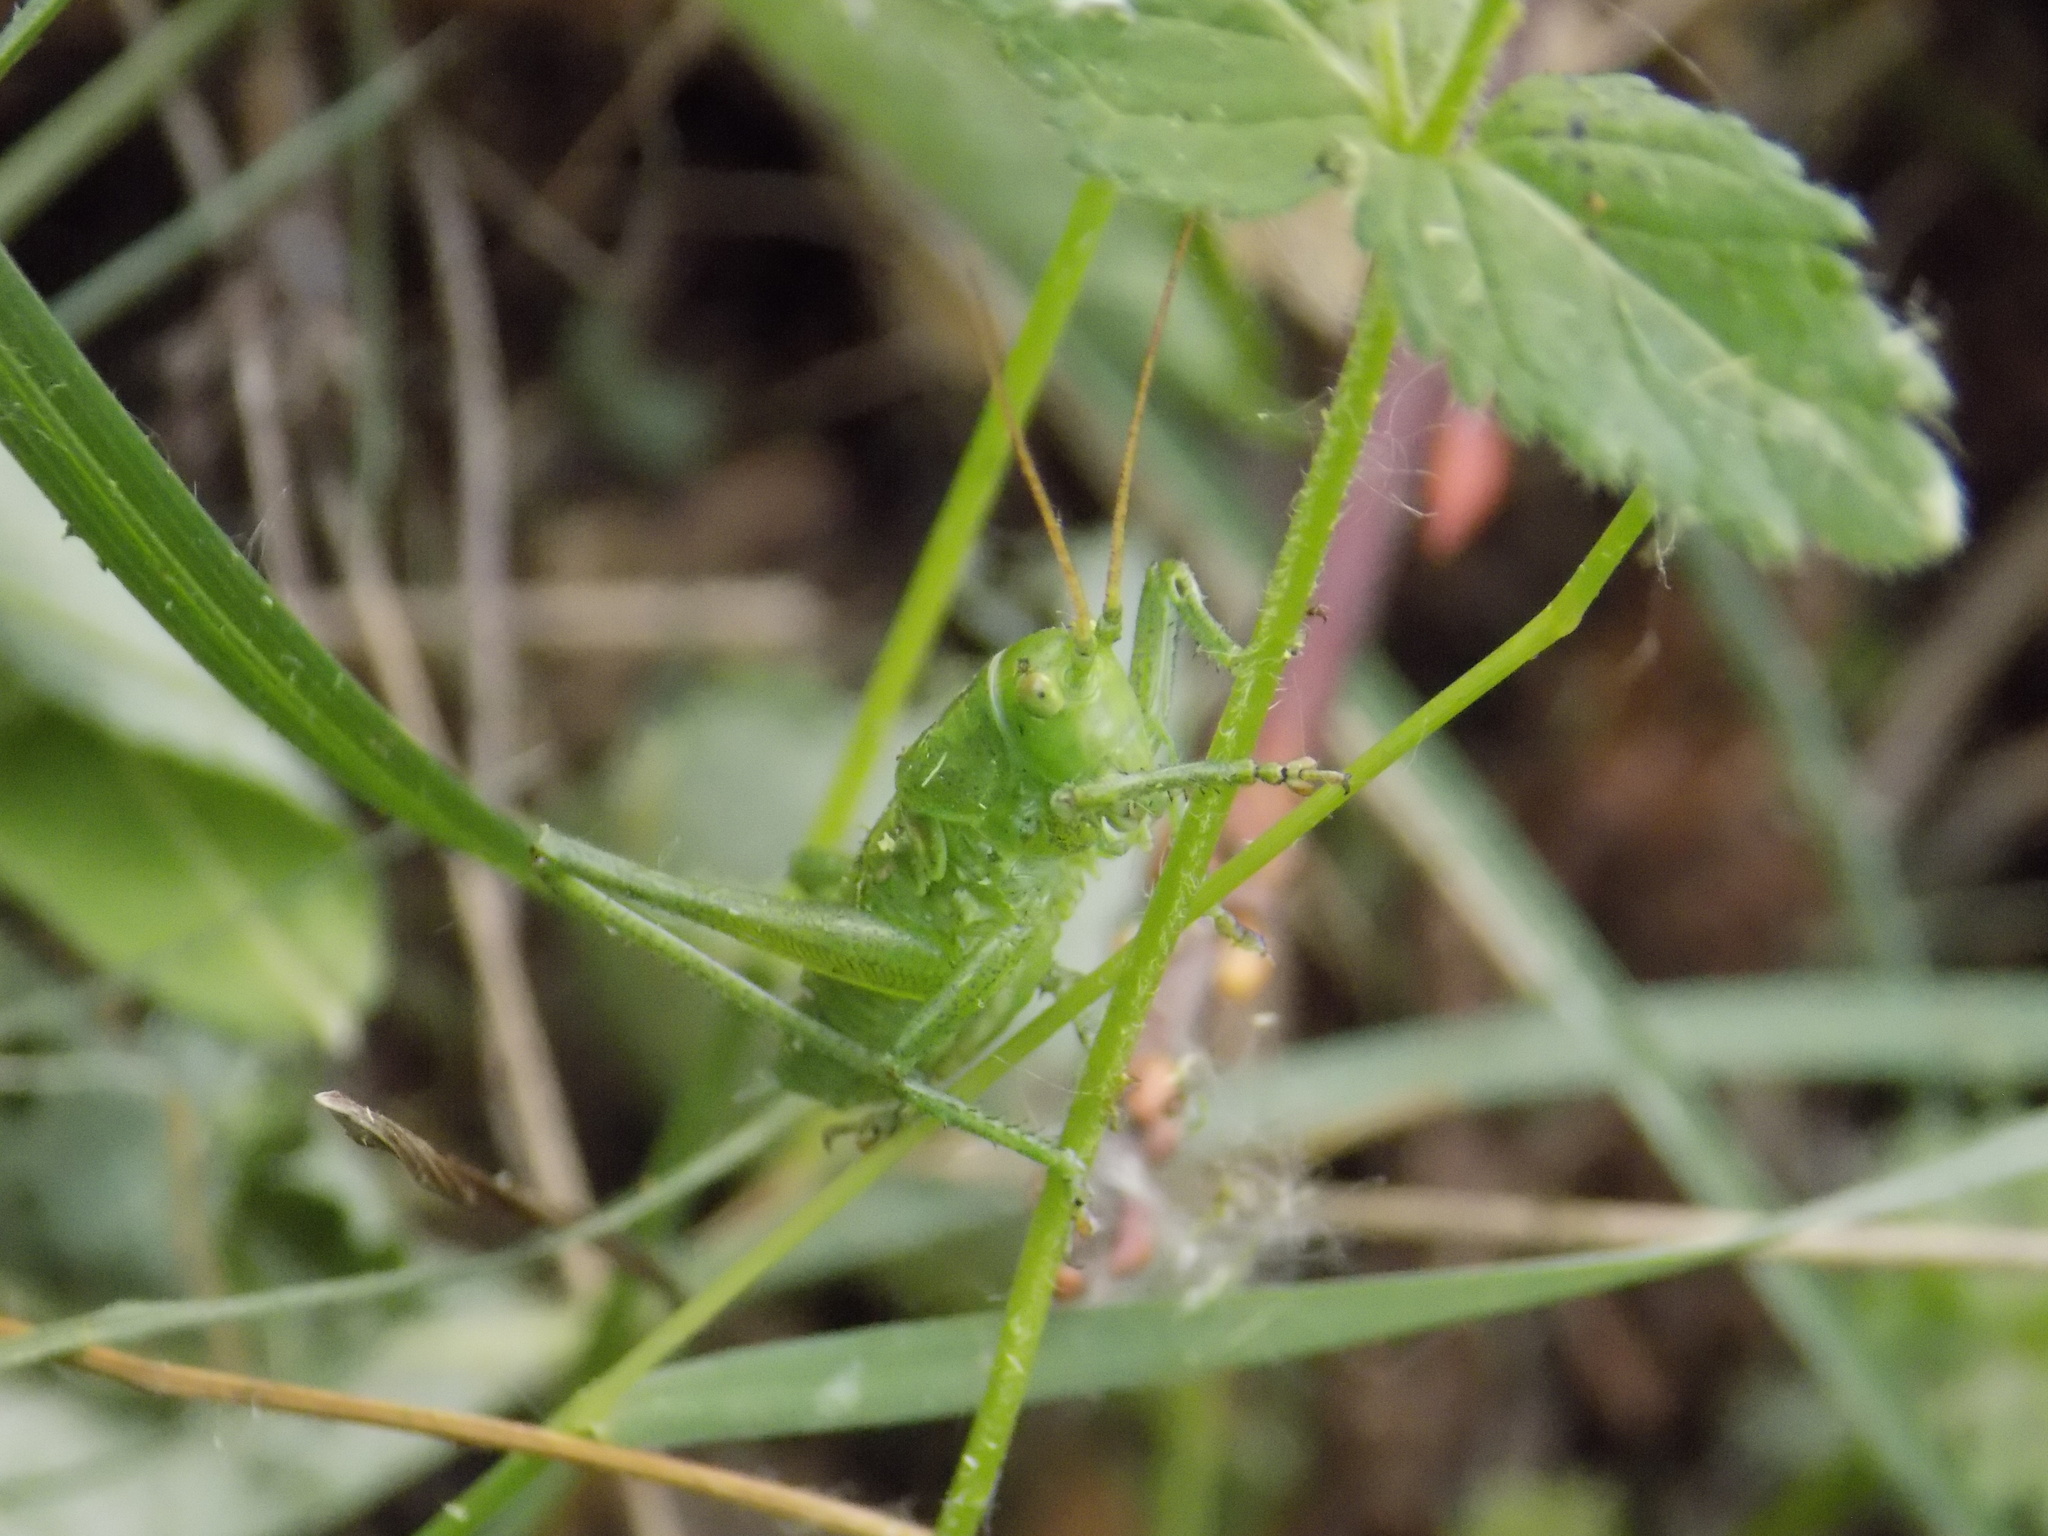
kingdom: Animalia
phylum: Arthropoda
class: Insecta
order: Orthoptera
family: Tettigoniidae
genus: Tettigonia
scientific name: Tettigonia
